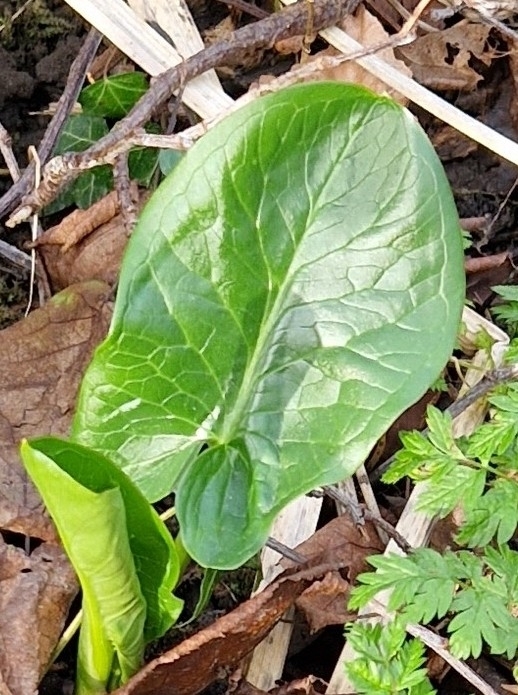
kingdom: Plantae
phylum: Tracheophyta
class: Liliopsida
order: Alismatales
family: Araceae
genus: Arum
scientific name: Arum maculatum
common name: Lords-and-ladies
